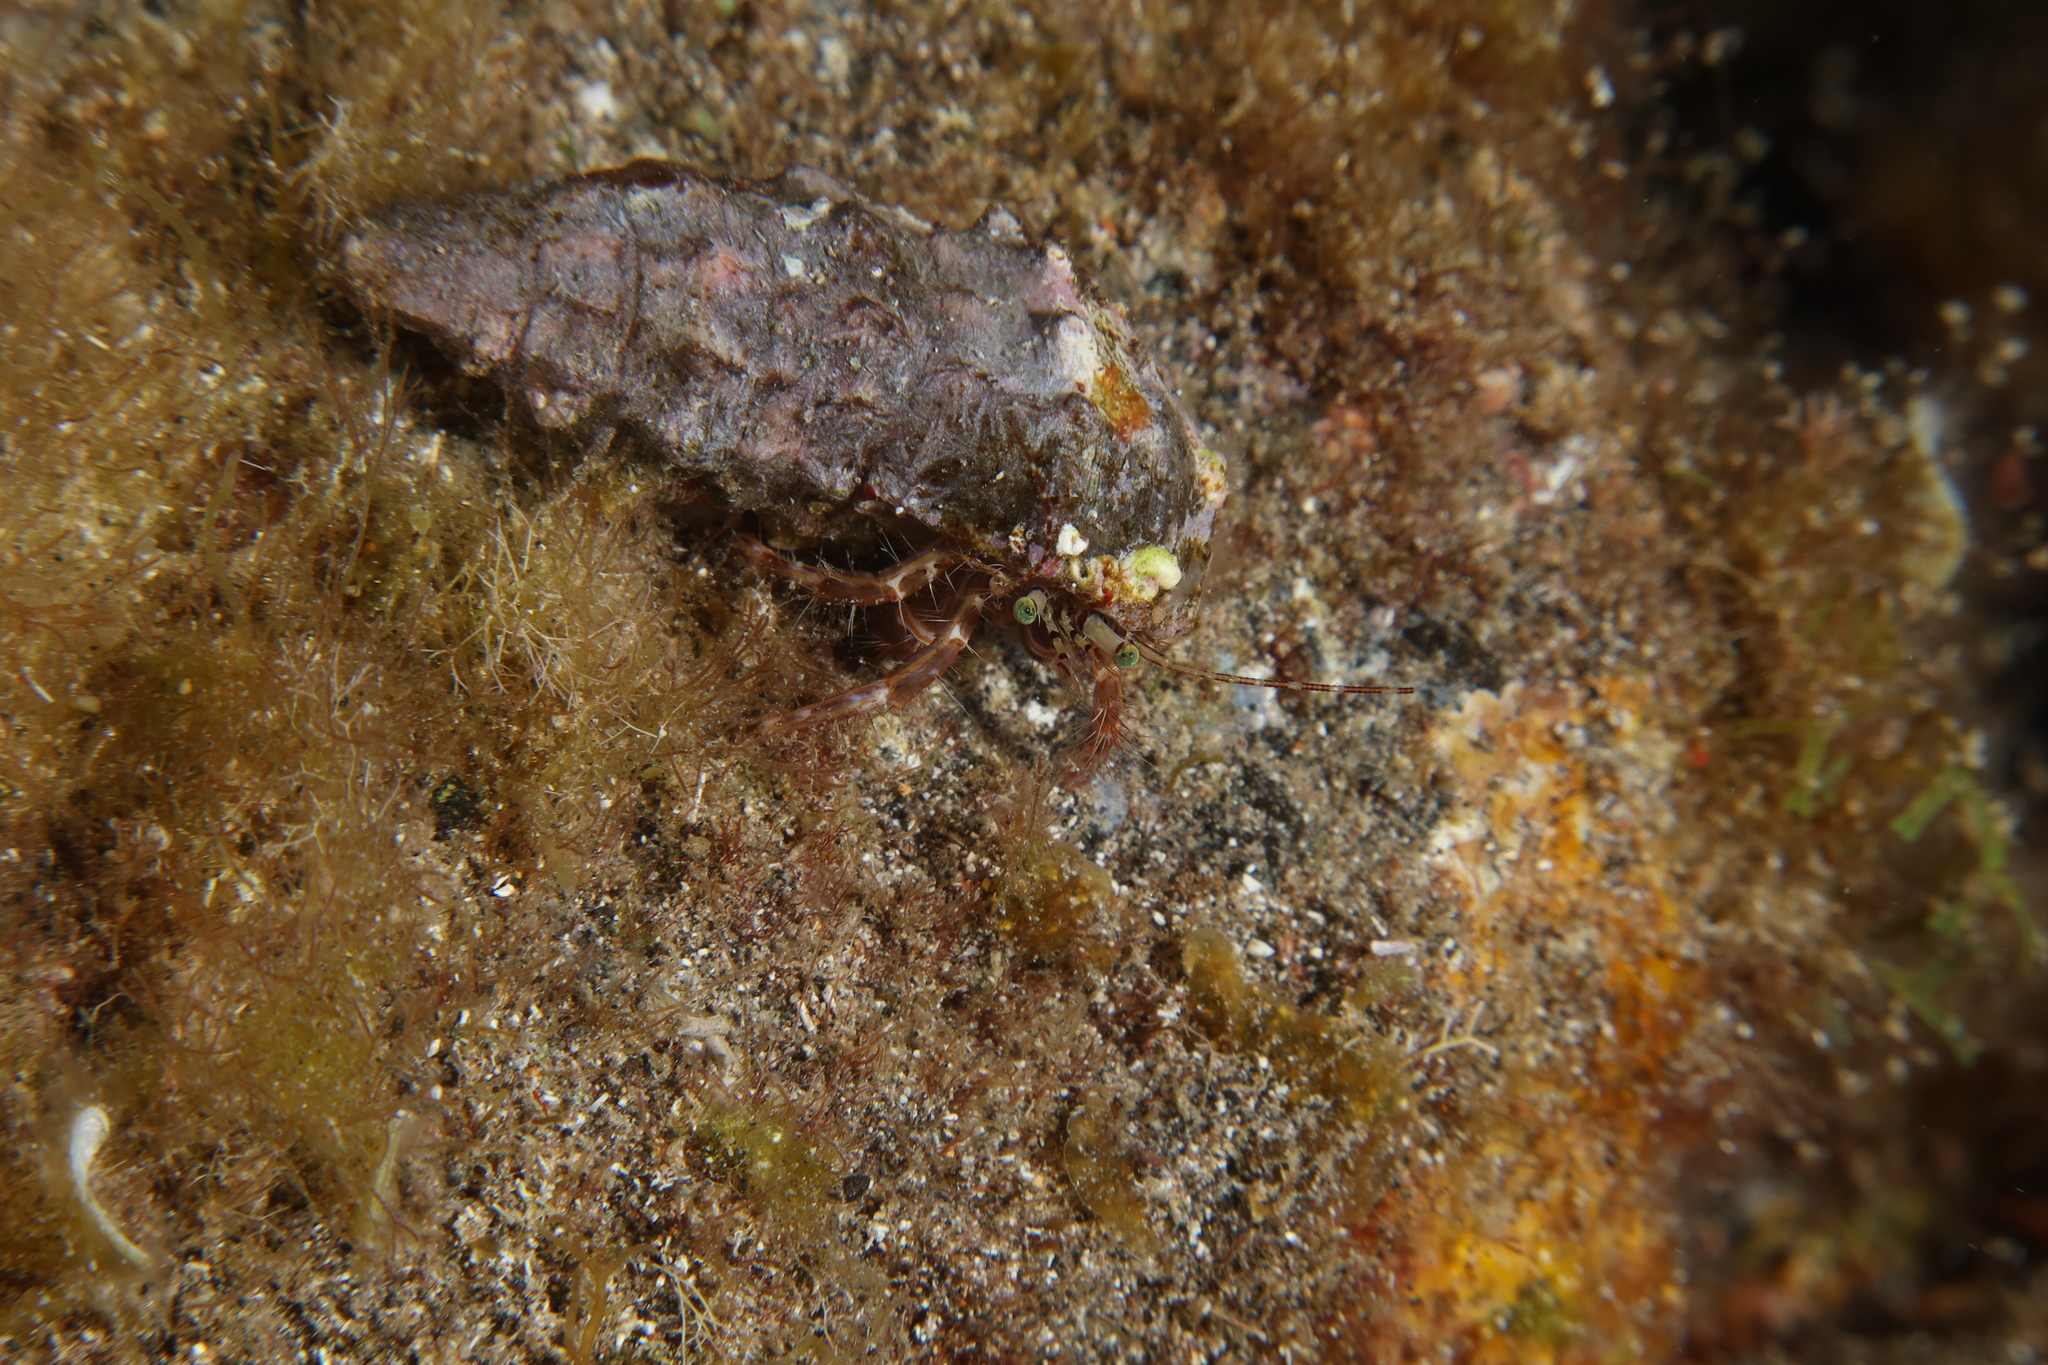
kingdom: Animalia
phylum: Arthropoda
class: Malacostraca
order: Decapoda
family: Paguridae
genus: Pagurus
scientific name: Pagurus anachoretus
